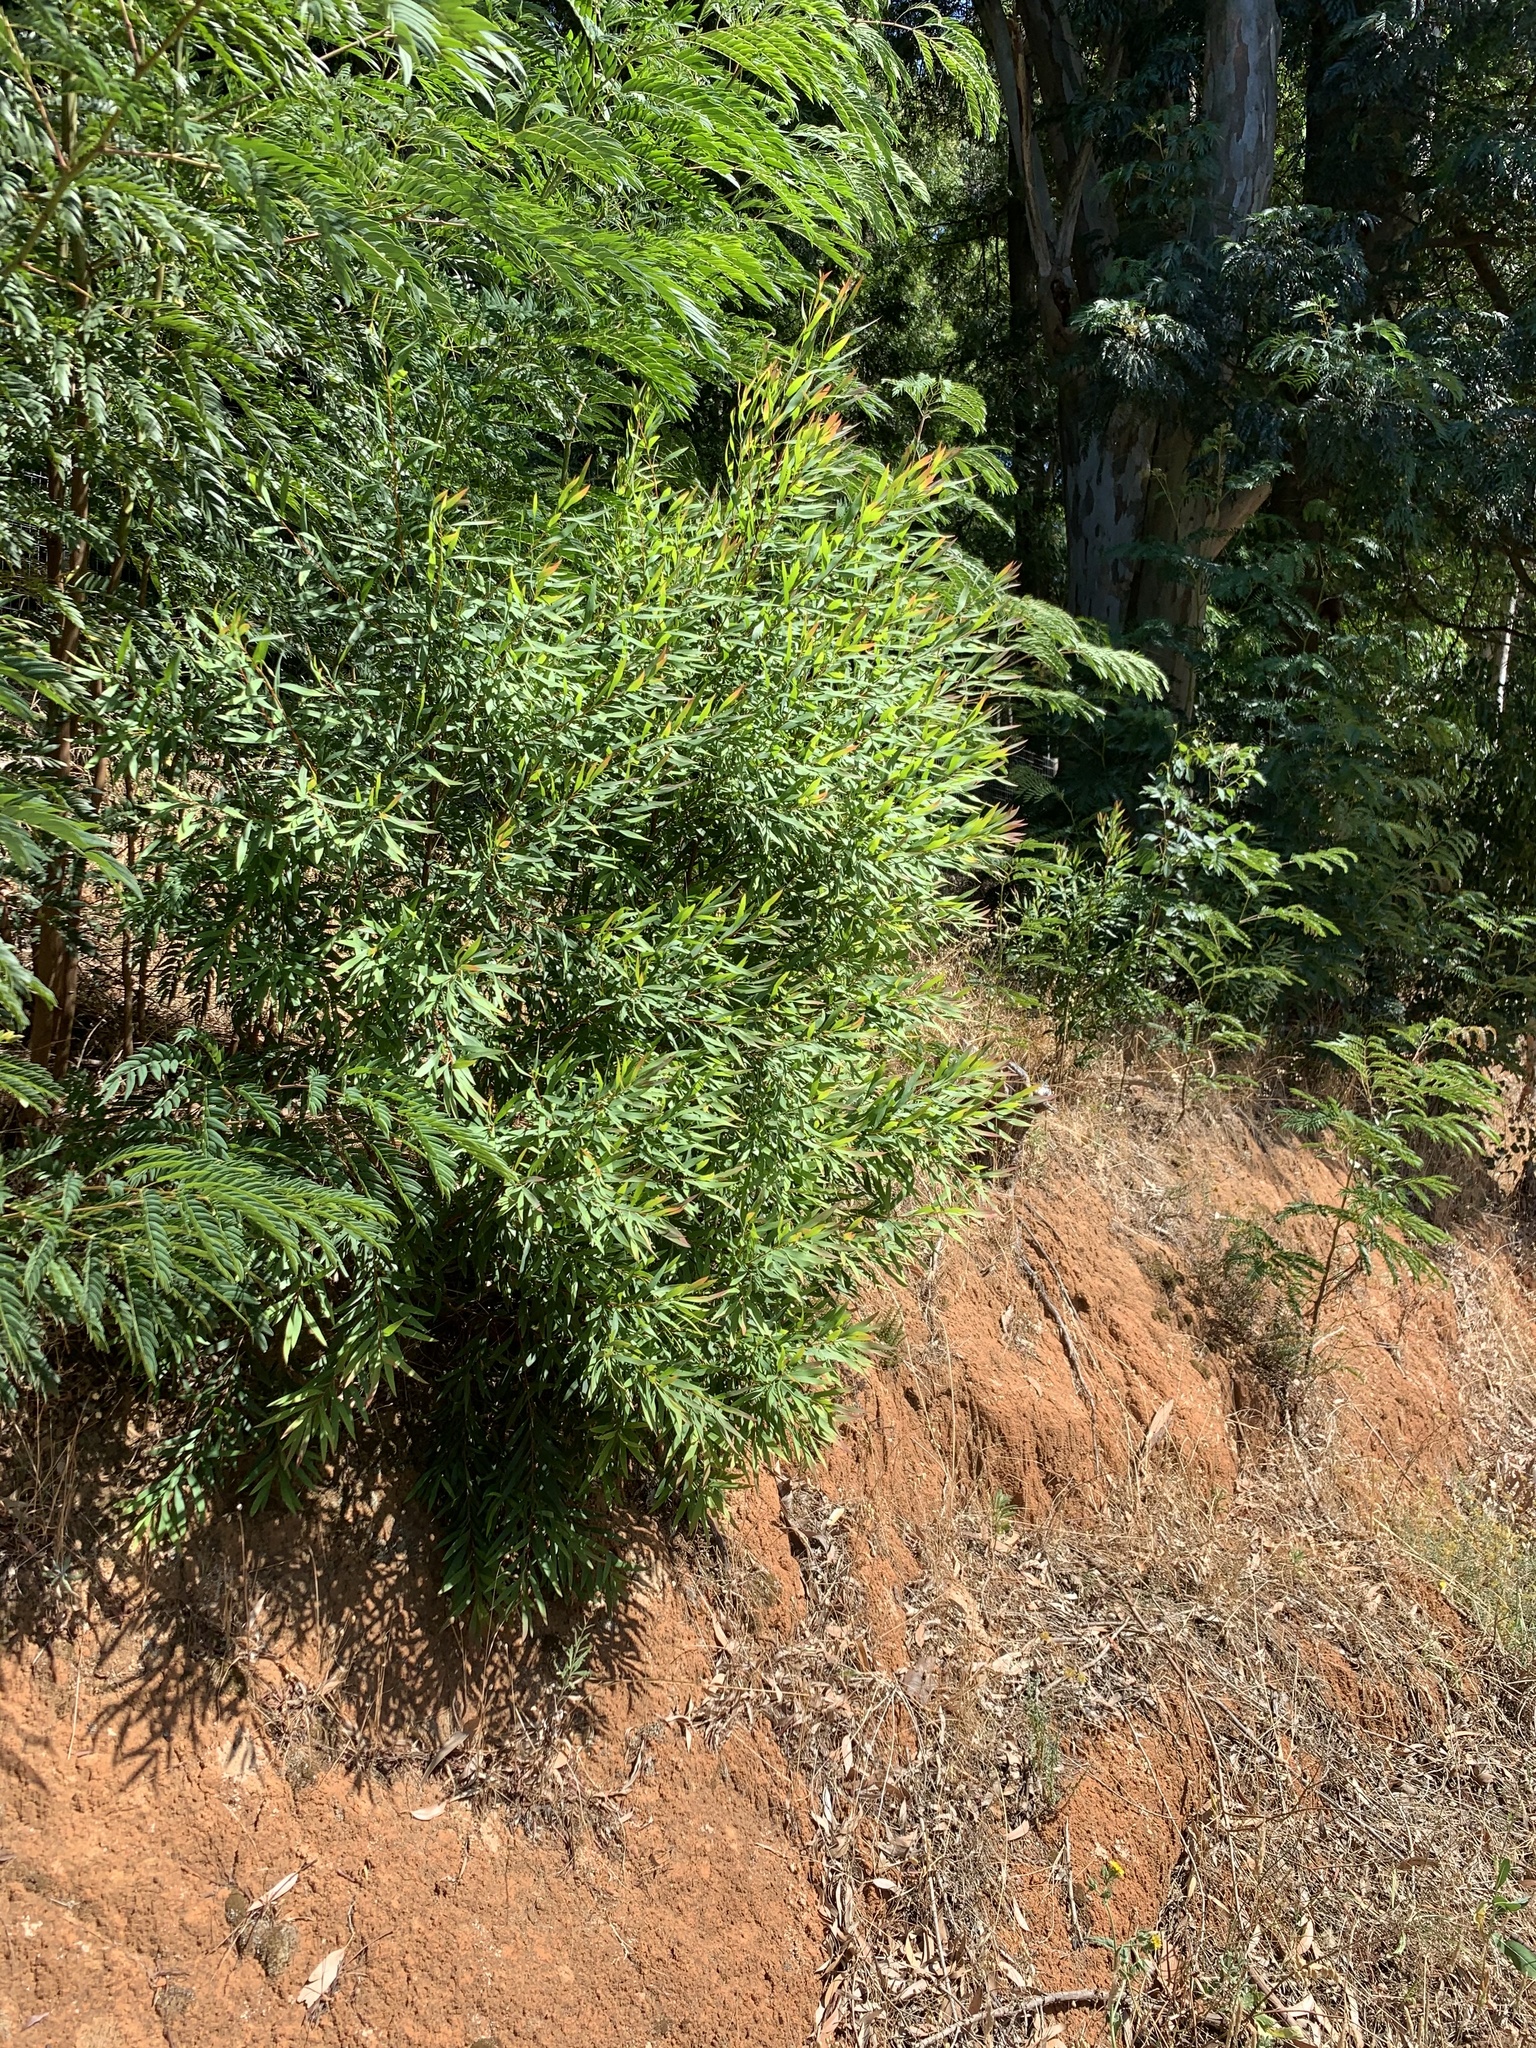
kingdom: Plantae
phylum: Tracheophyta
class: Magnoliopsida
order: Proteales
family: Proteaceae
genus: Hakea
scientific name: Hakea salicifolia
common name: Willow hakea
